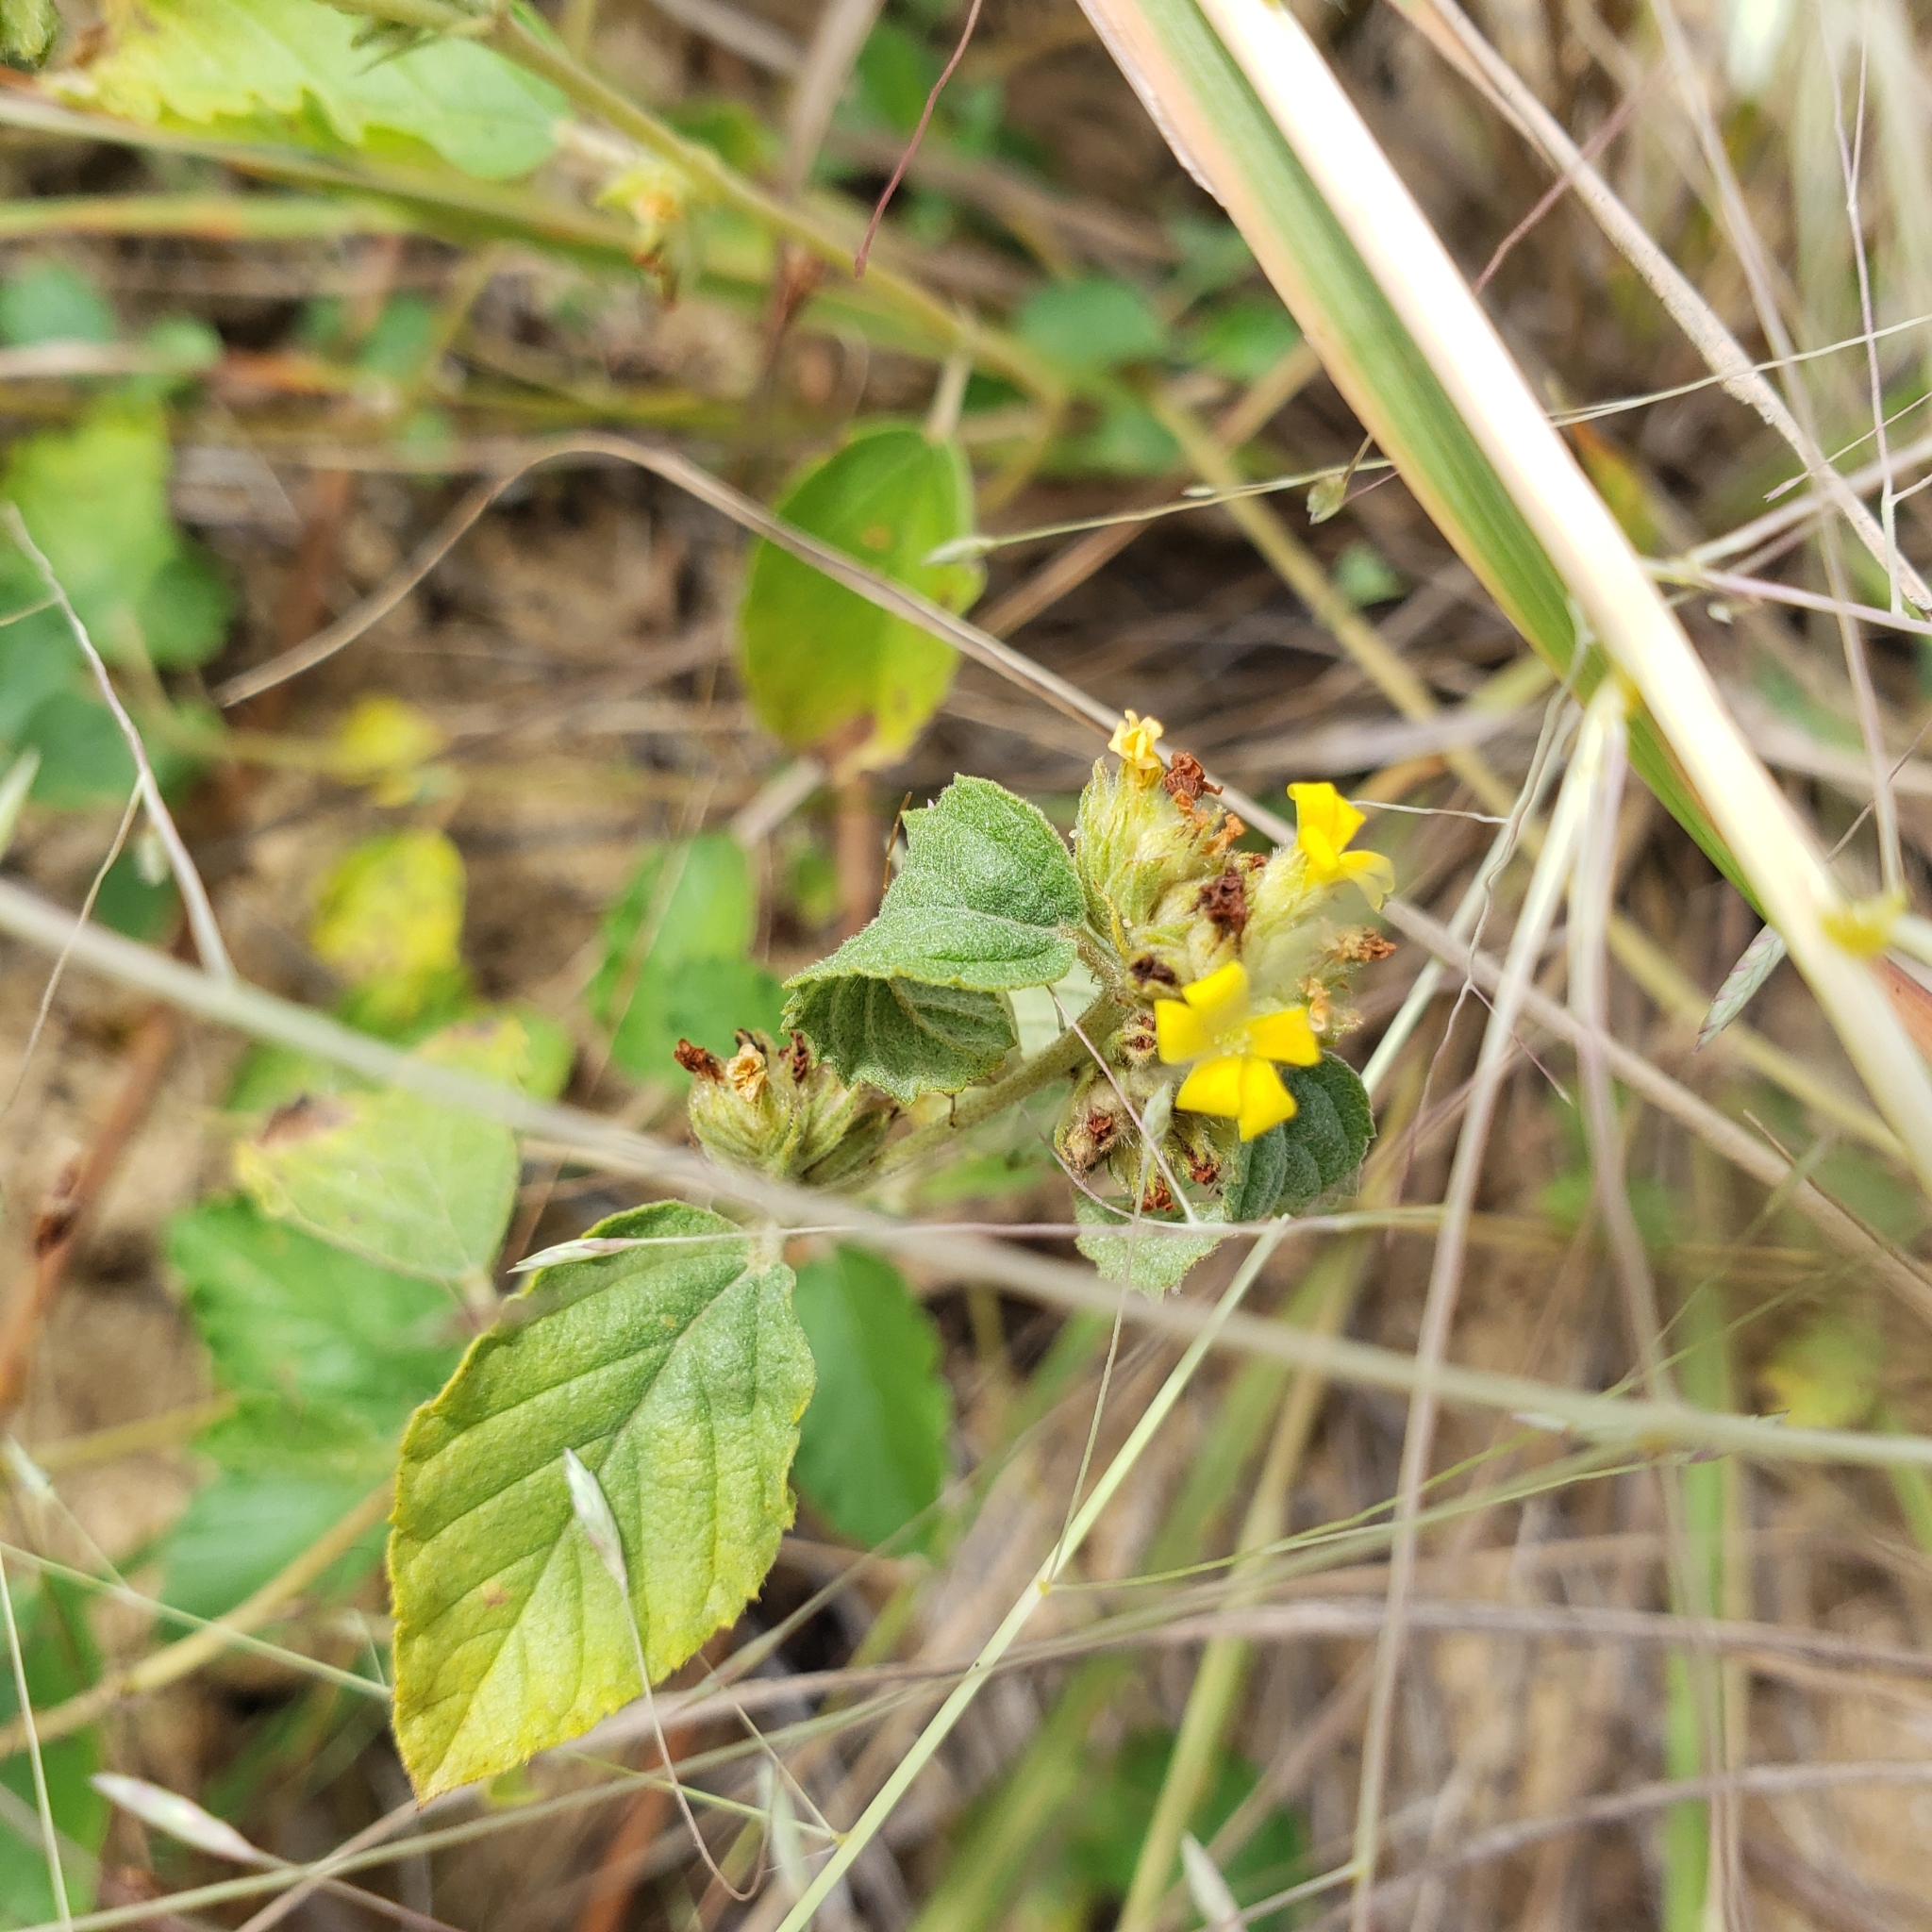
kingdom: Plantae
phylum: Tracheophyta
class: Magnoliopsida
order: Malvales
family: Malvaceae
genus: Waltheria
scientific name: Waltheria indica
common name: Leather-coat
